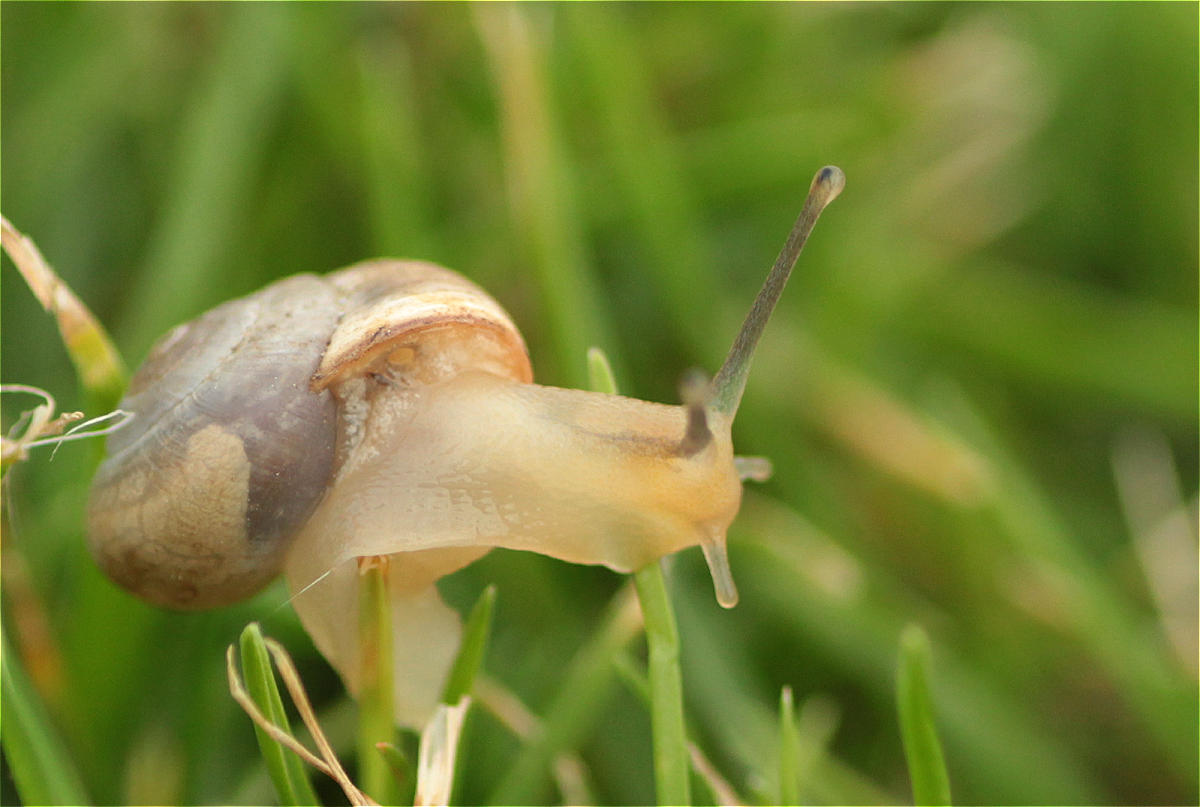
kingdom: Animalia
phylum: Mollusca
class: Gastropoda
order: Stylommatophora
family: Hygromiidae
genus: Monacha
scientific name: Monacha obstructa
